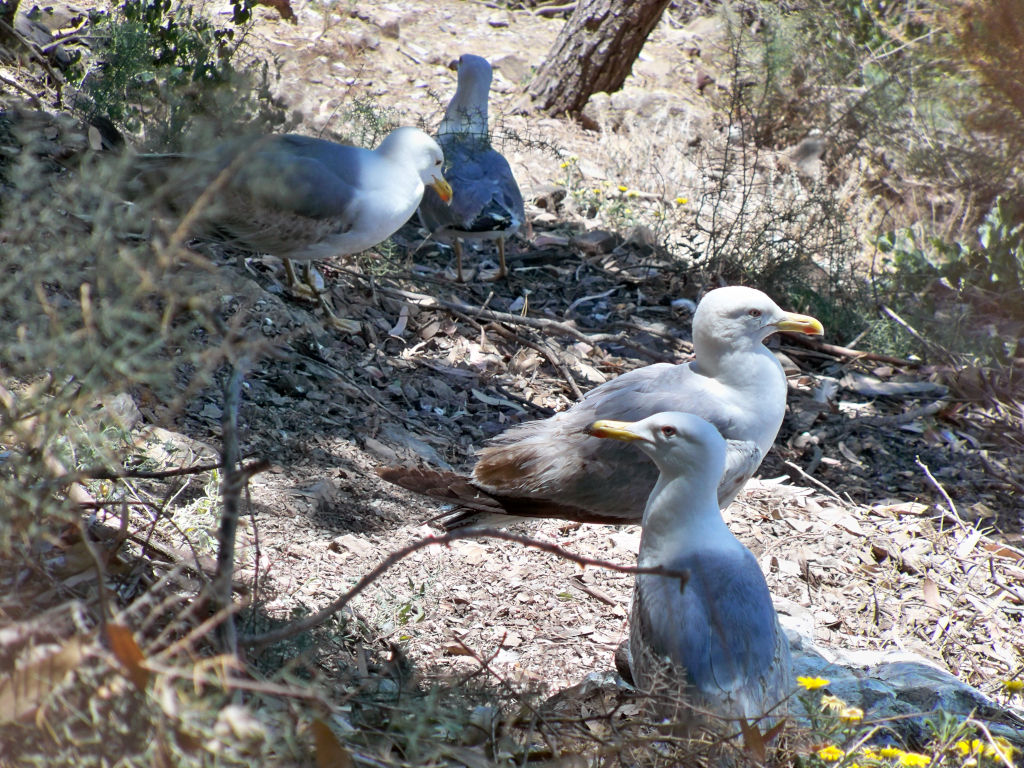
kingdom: Animalia
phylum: Chordata
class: Aves
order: Charadriiformes
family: Laridae
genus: Larus
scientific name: Larus michahellis
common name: Yellow-legged gull
